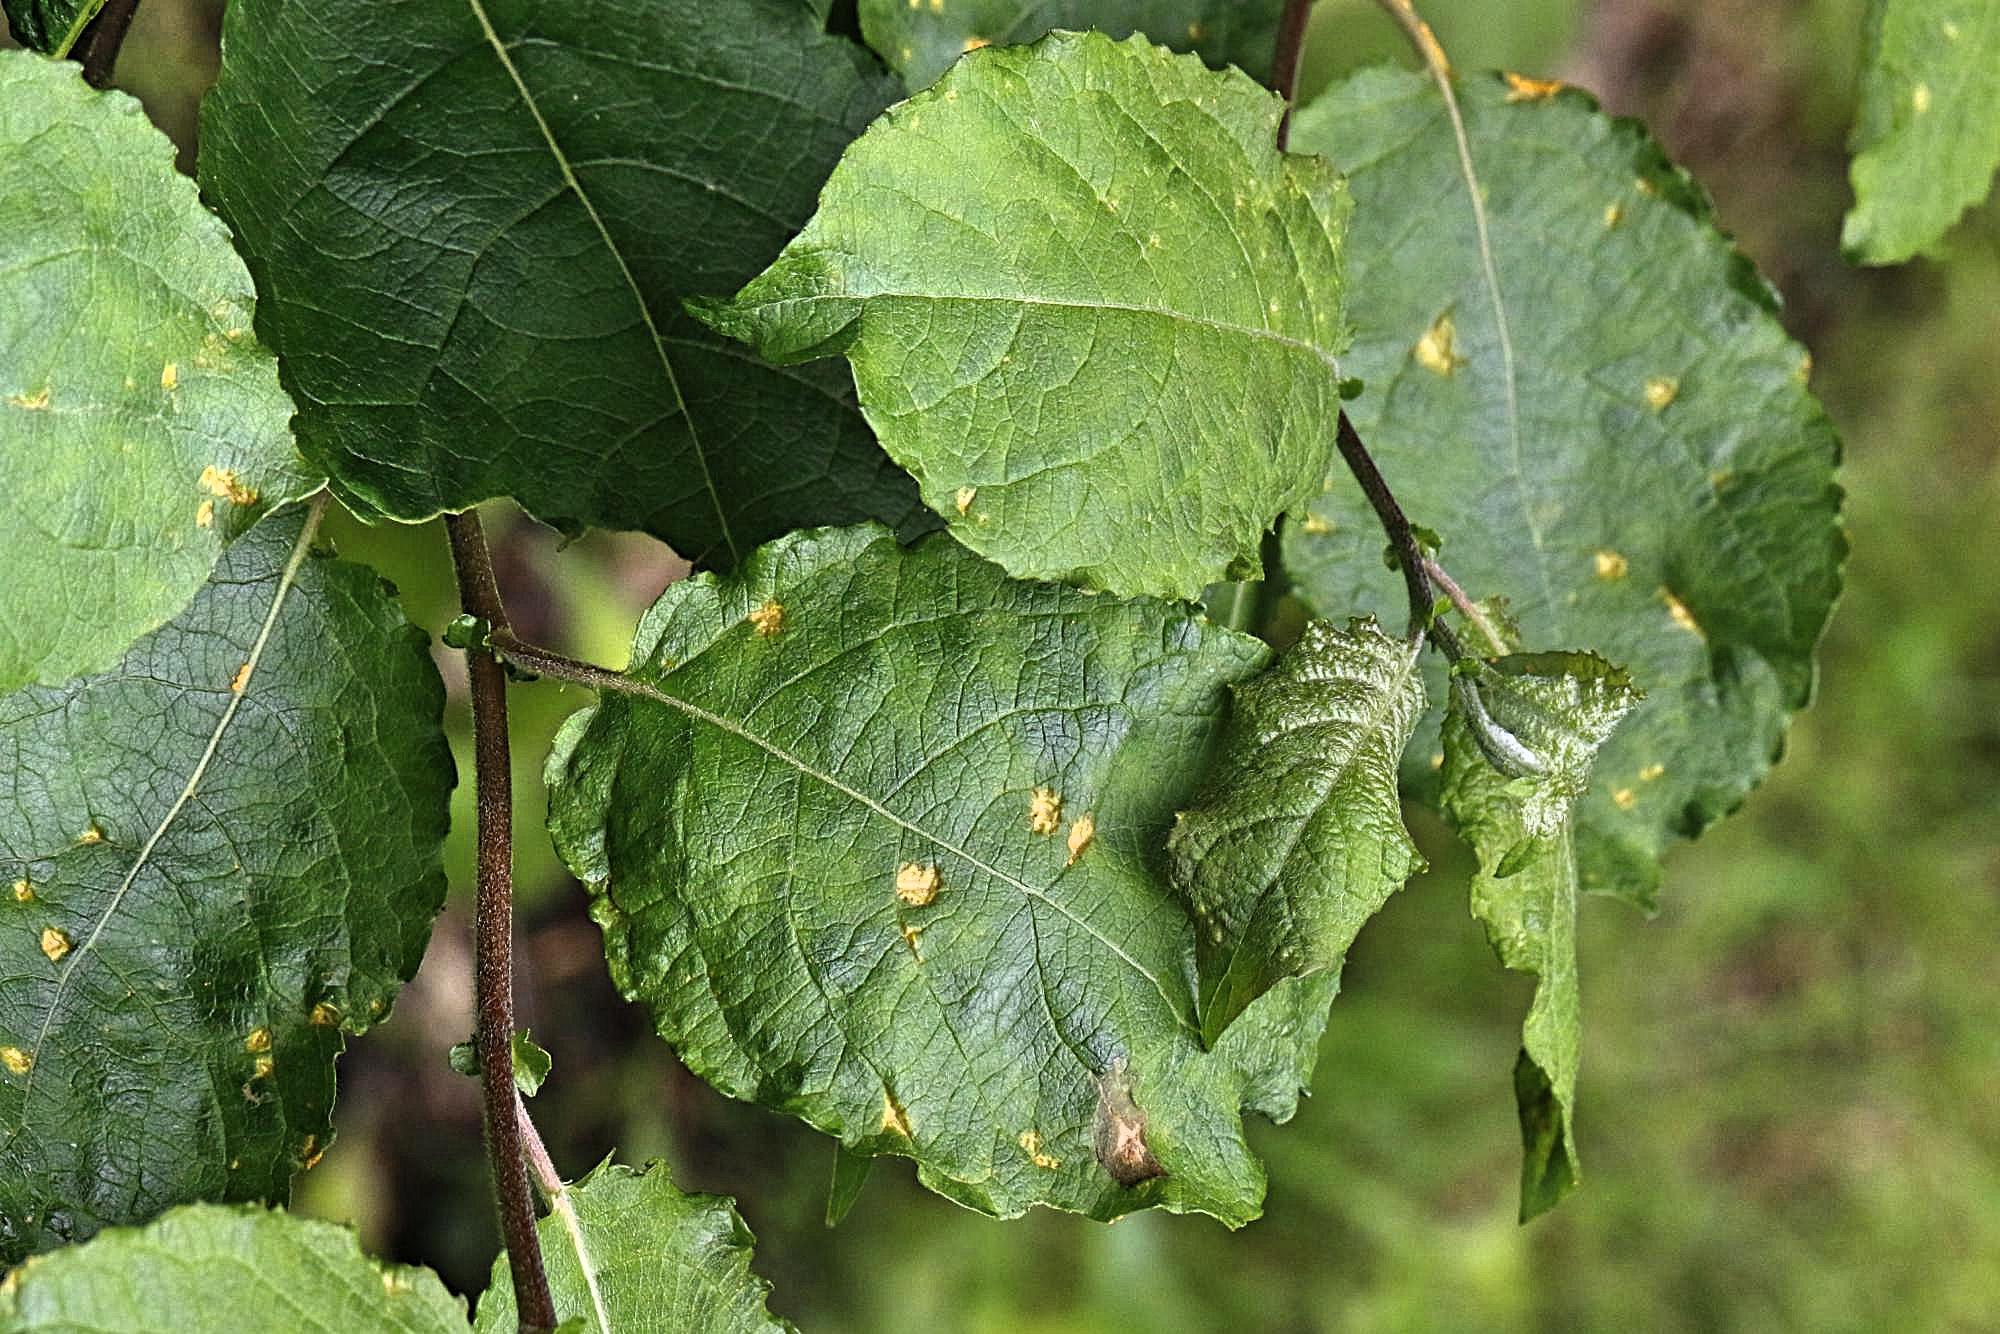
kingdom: Plantae
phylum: Tracheophyta
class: Magnoliopsida
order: Malpighiales
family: Salicaceae
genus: Salix
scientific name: Salix caprea
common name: Goat willow
